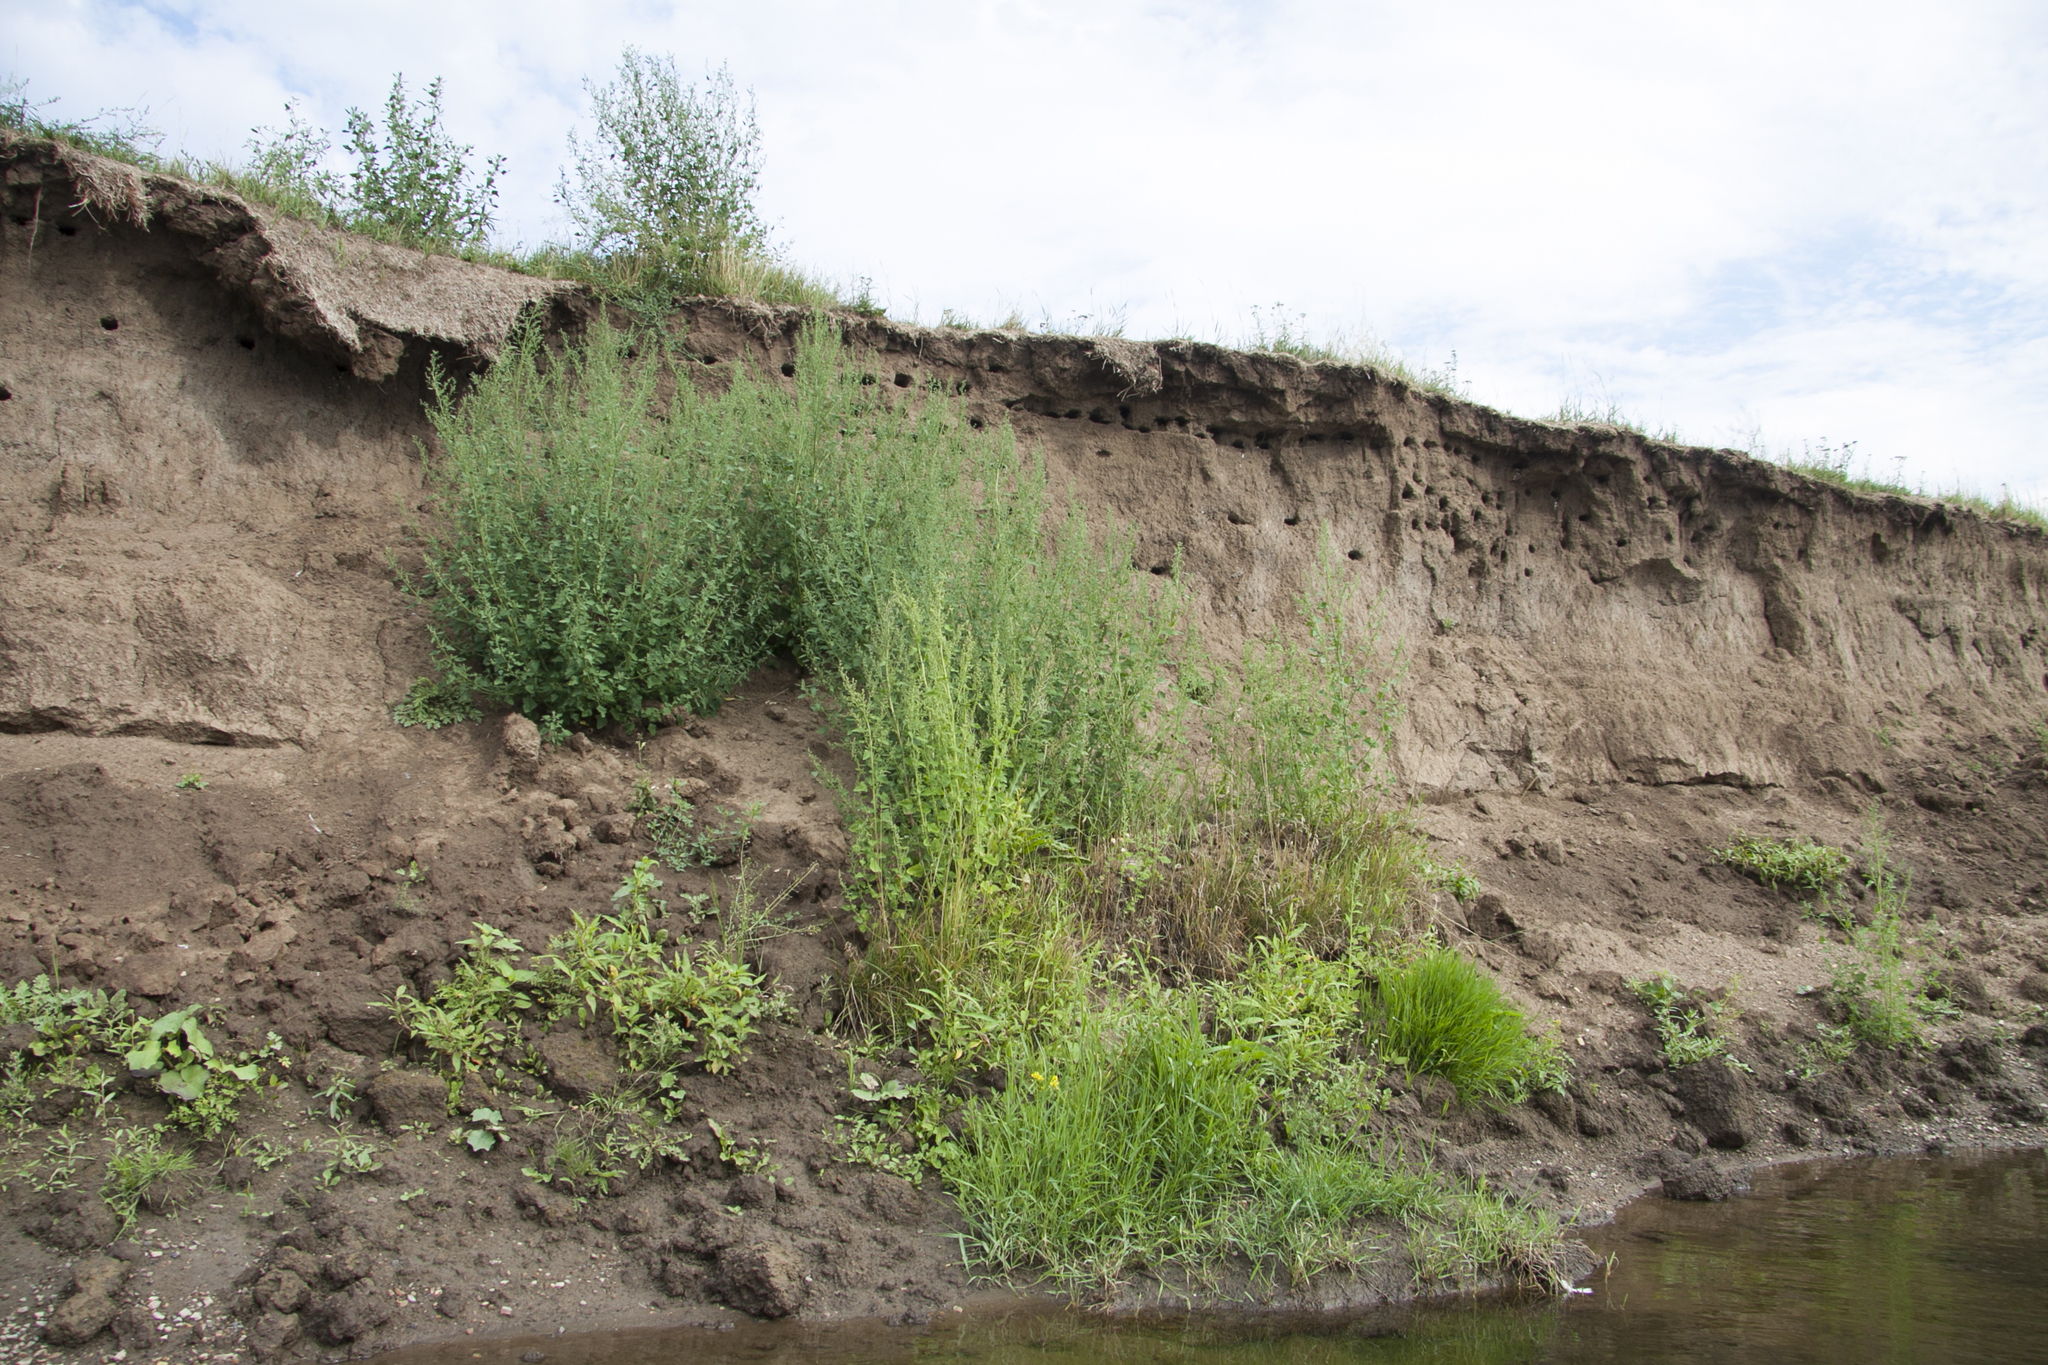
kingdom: Animalia
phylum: Chordata
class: Aves
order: Passeriformes
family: Hirundinidae
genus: Riparia
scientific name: Riparia riparia
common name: Sand martin
